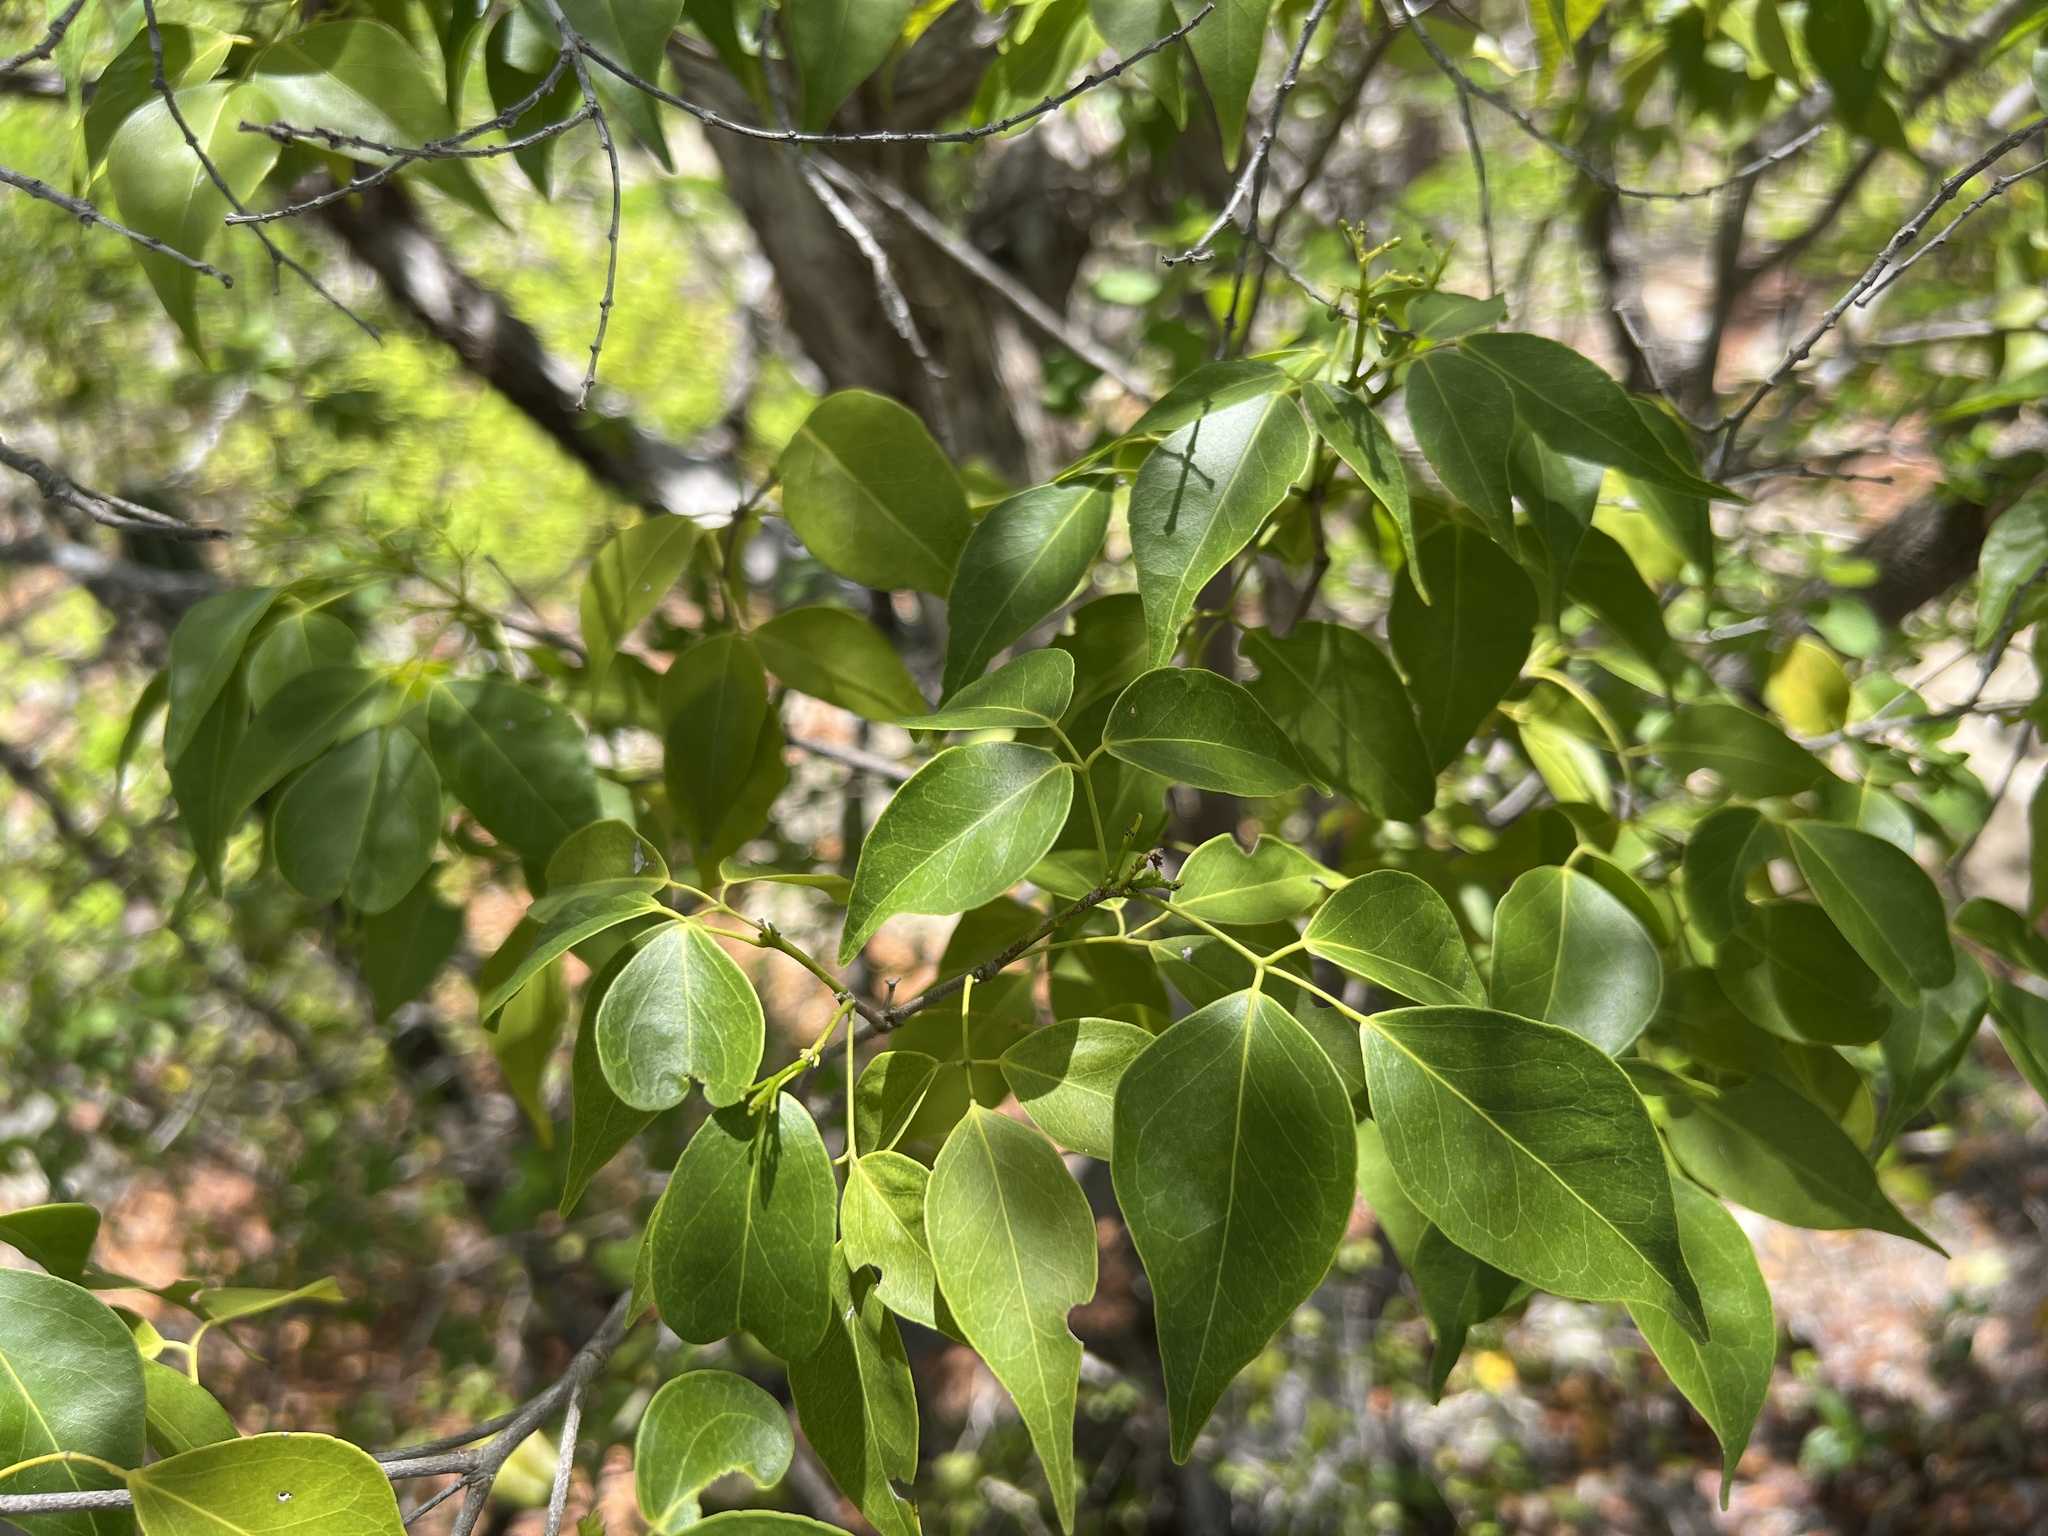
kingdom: Plantae
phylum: Tracheophyta
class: Magnoliopsida
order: Sapindales
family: Rutaceae
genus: Amyris
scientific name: Amyris elemifera
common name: Sea amyris
